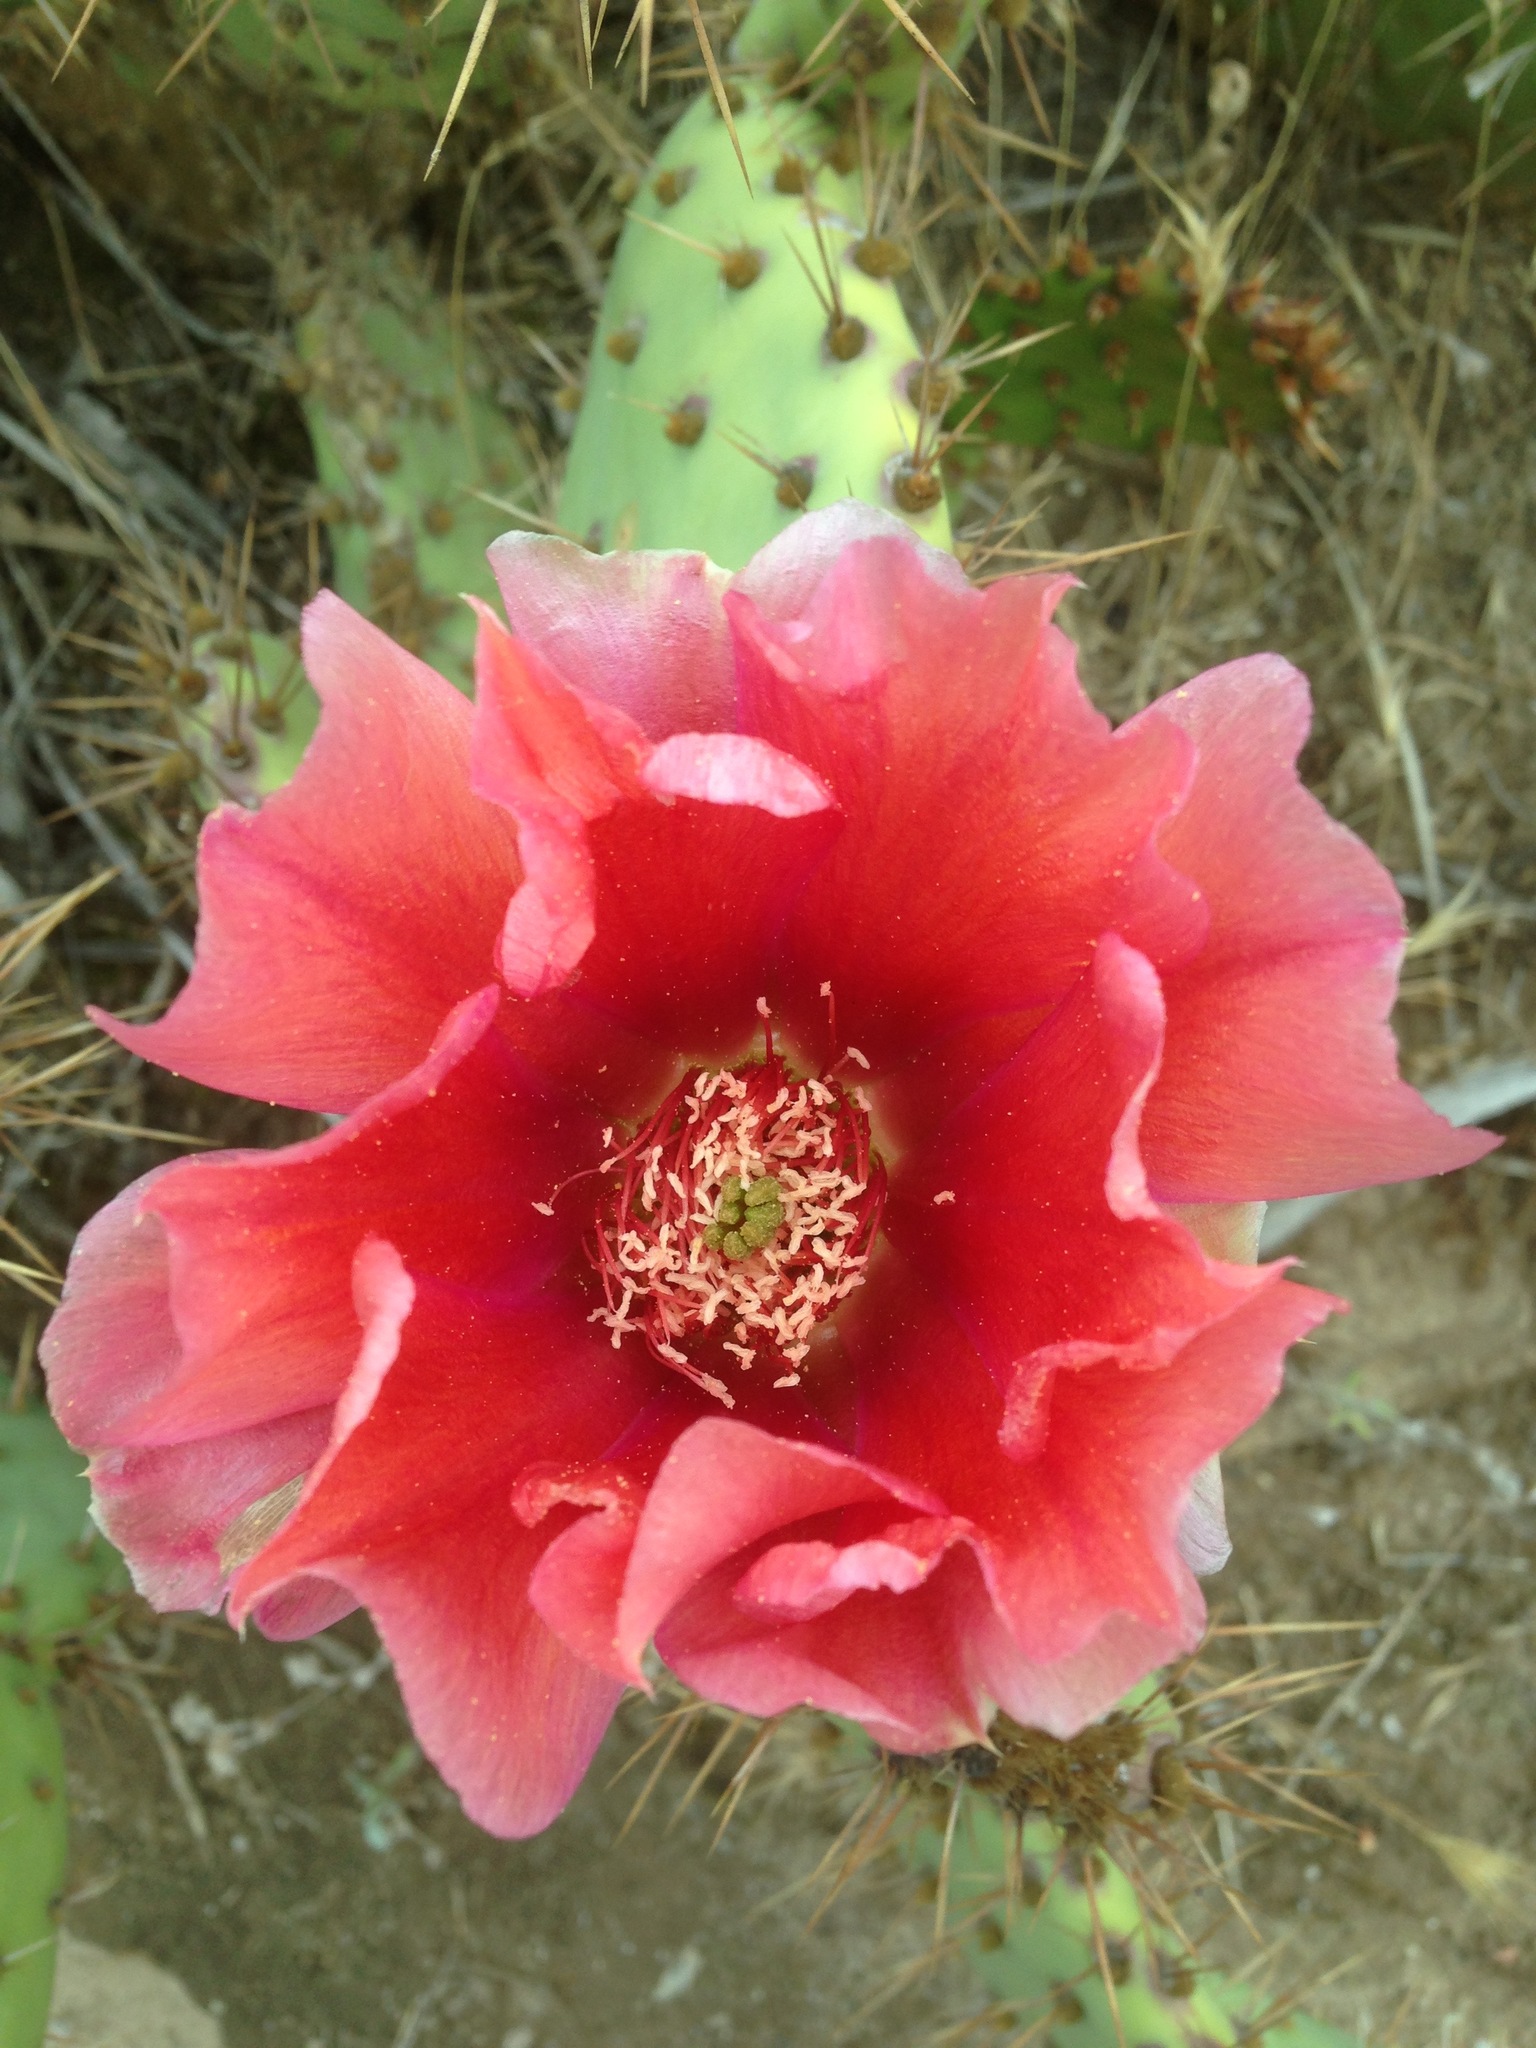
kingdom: Plantae
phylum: Tracheophyta
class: Magnoliopsida
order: Caryophyllales
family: Cactaceae
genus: Opuntia
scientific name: Opuntia vaseyi
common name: Apricot prickly-pear
